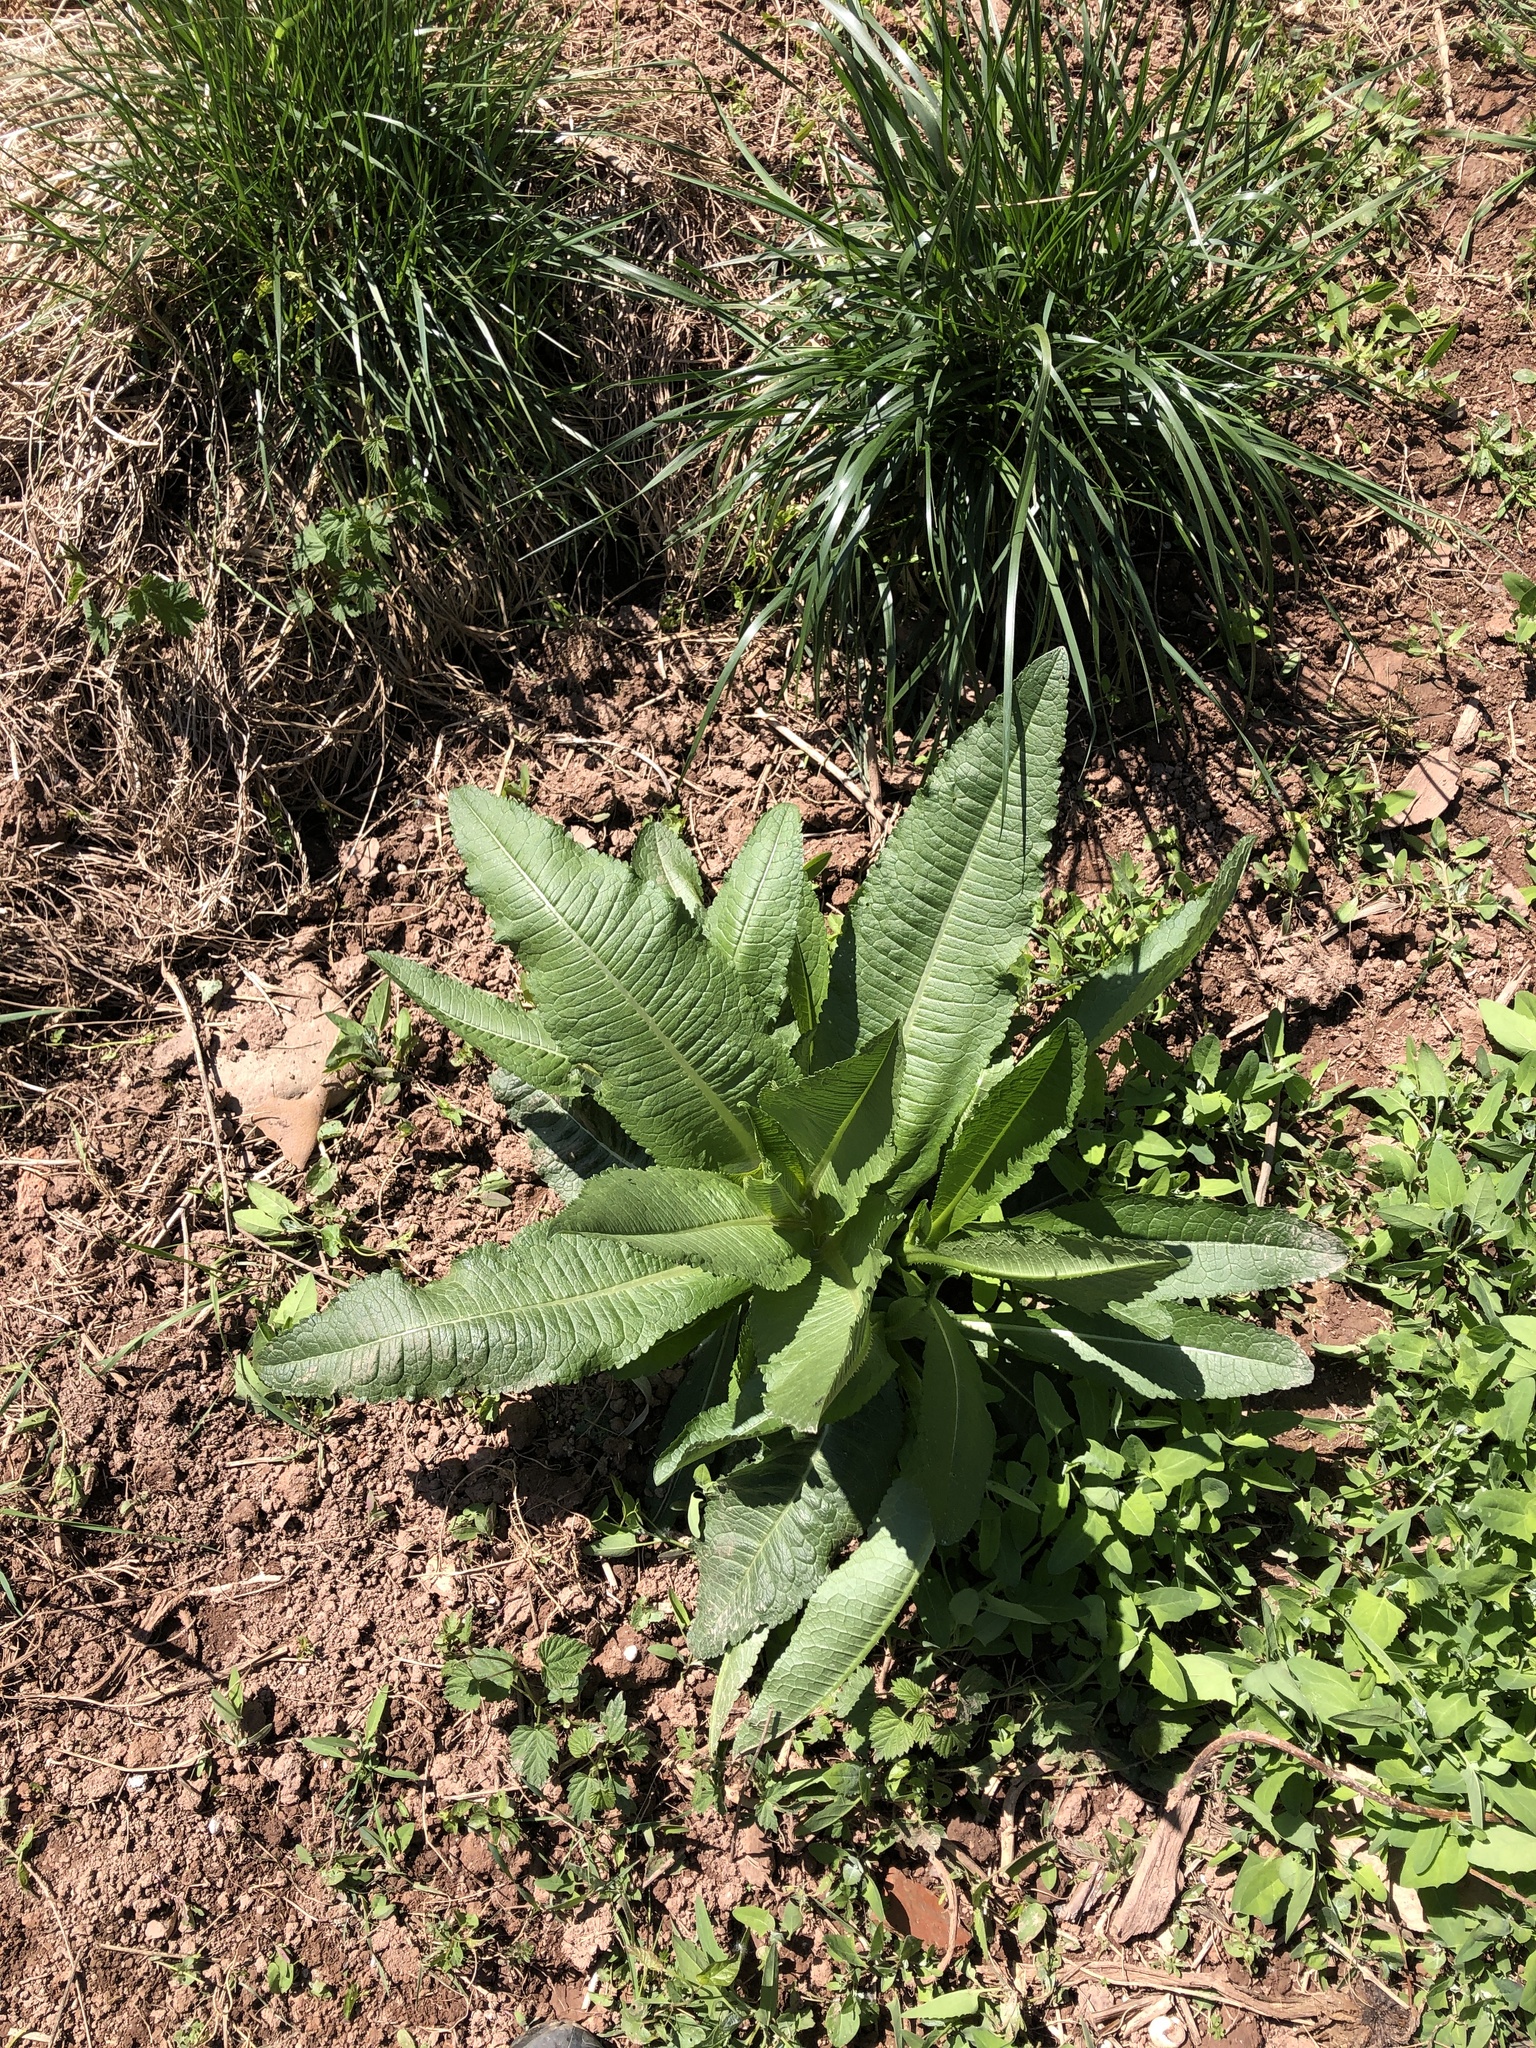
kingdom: Plantae
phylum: Tracheophyta
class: Magnoliopsida
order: Dipsacales
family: Caprifoliaceae
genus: Dipsacus
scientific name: Dipsacus fullonum
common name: Teasel
